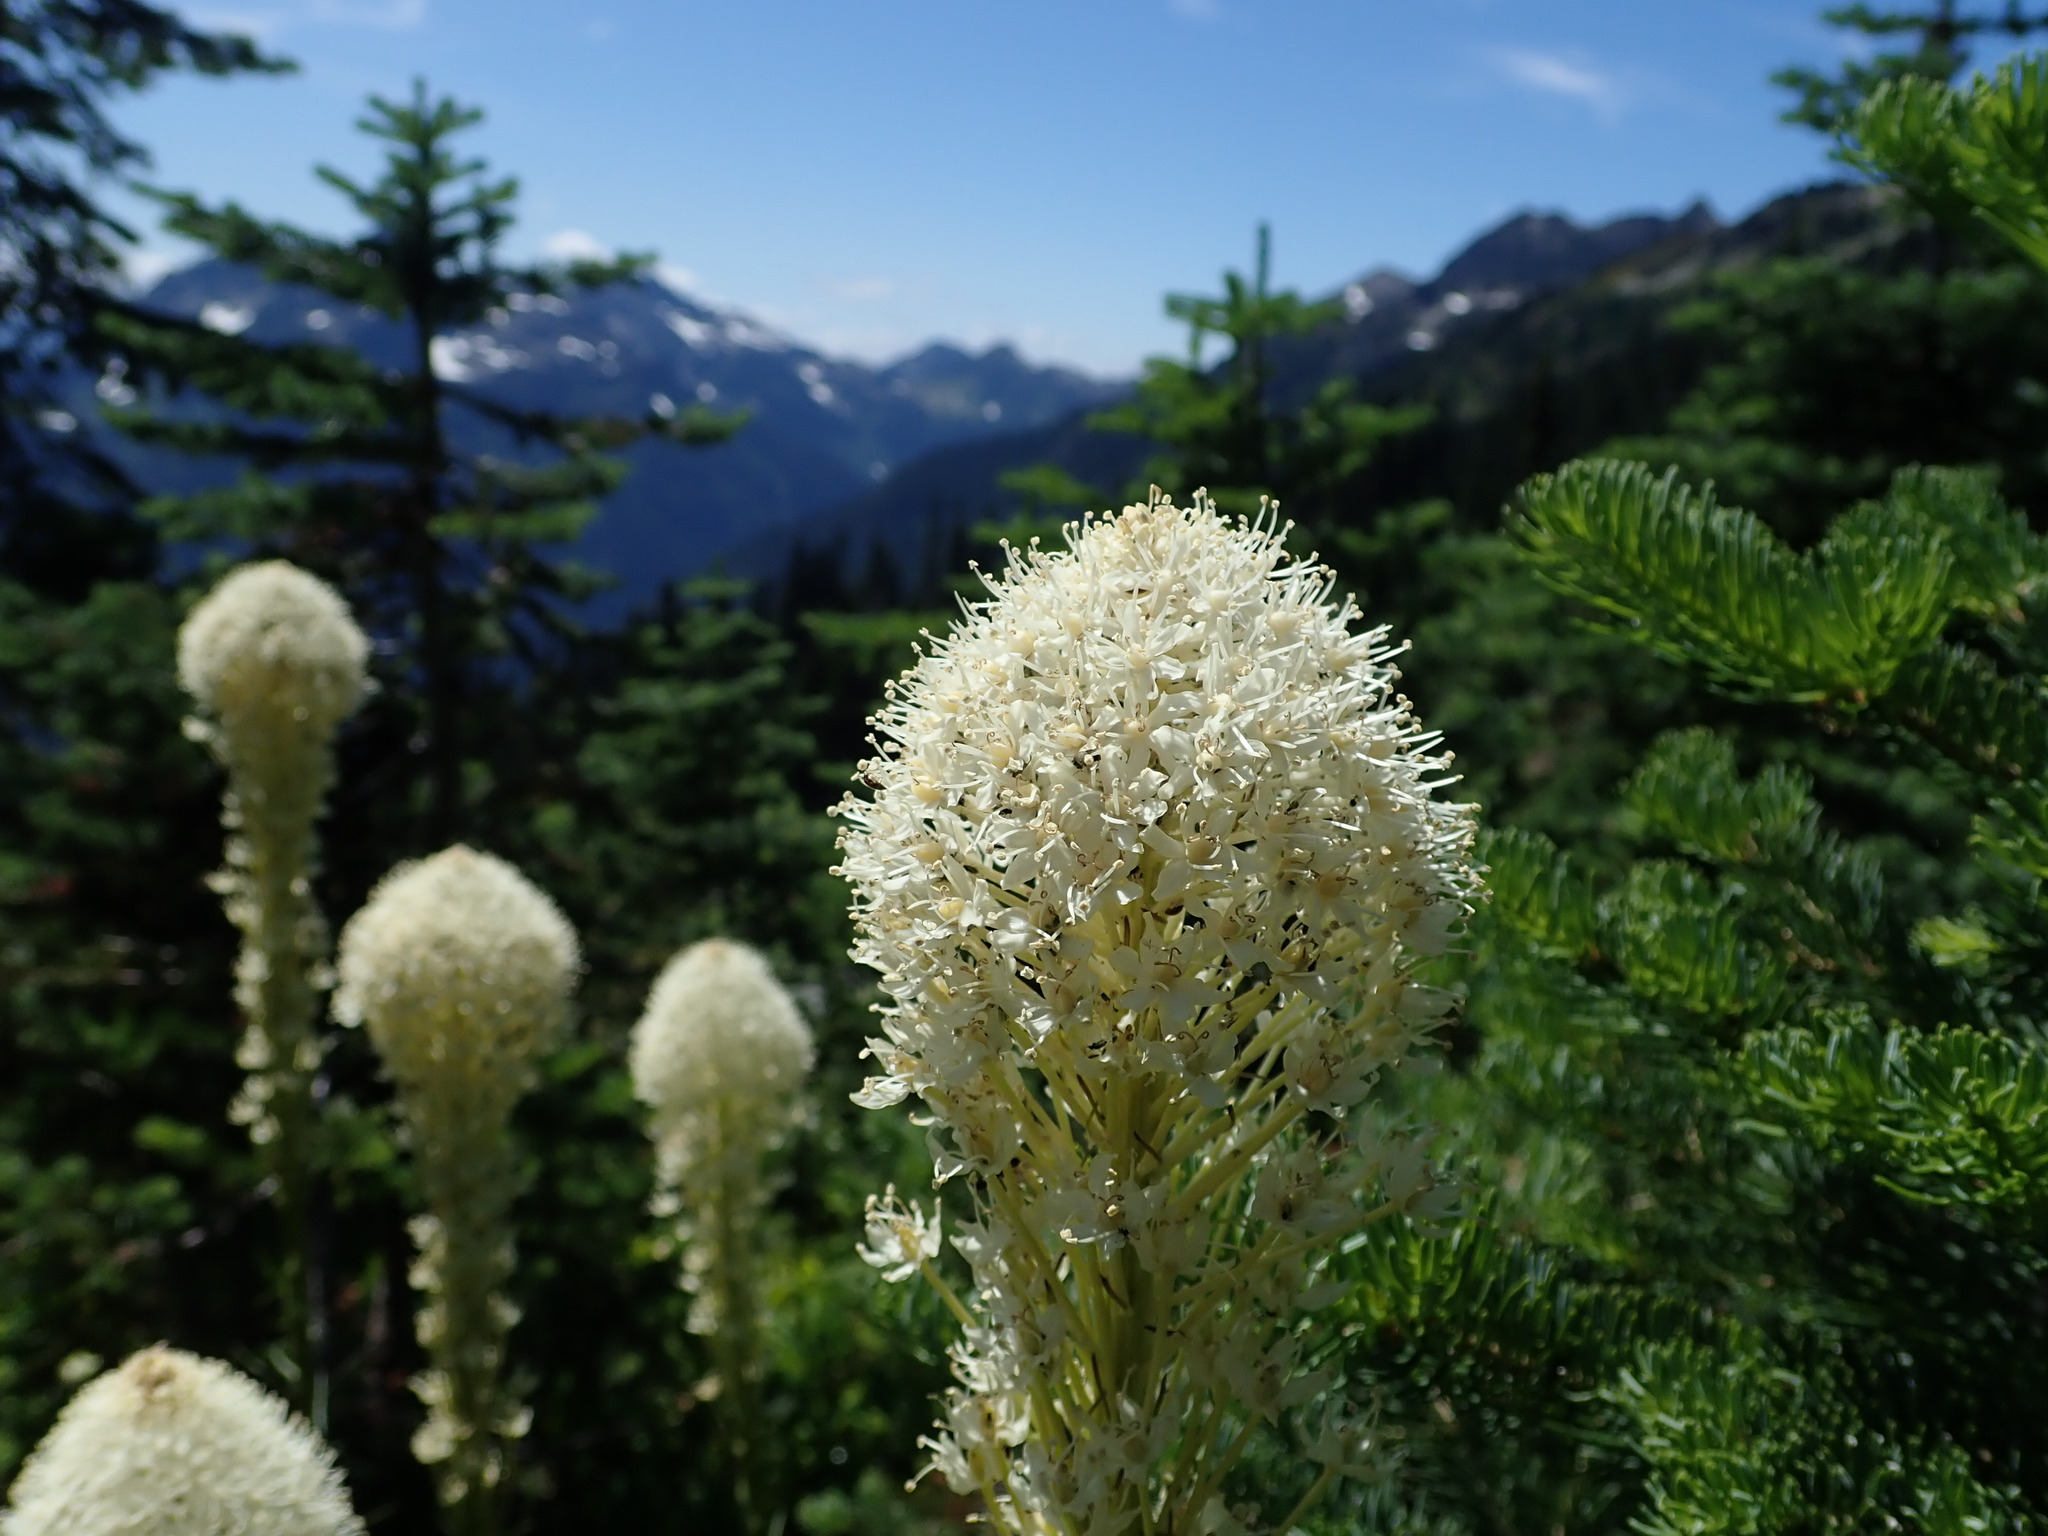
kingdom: Plantae
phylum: Tracheophyta
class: Liliopsida
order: Liliales
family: Melanthiaceae
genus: Xerophyllum
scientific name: Xerophyllum tenax
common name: Bear-grass
